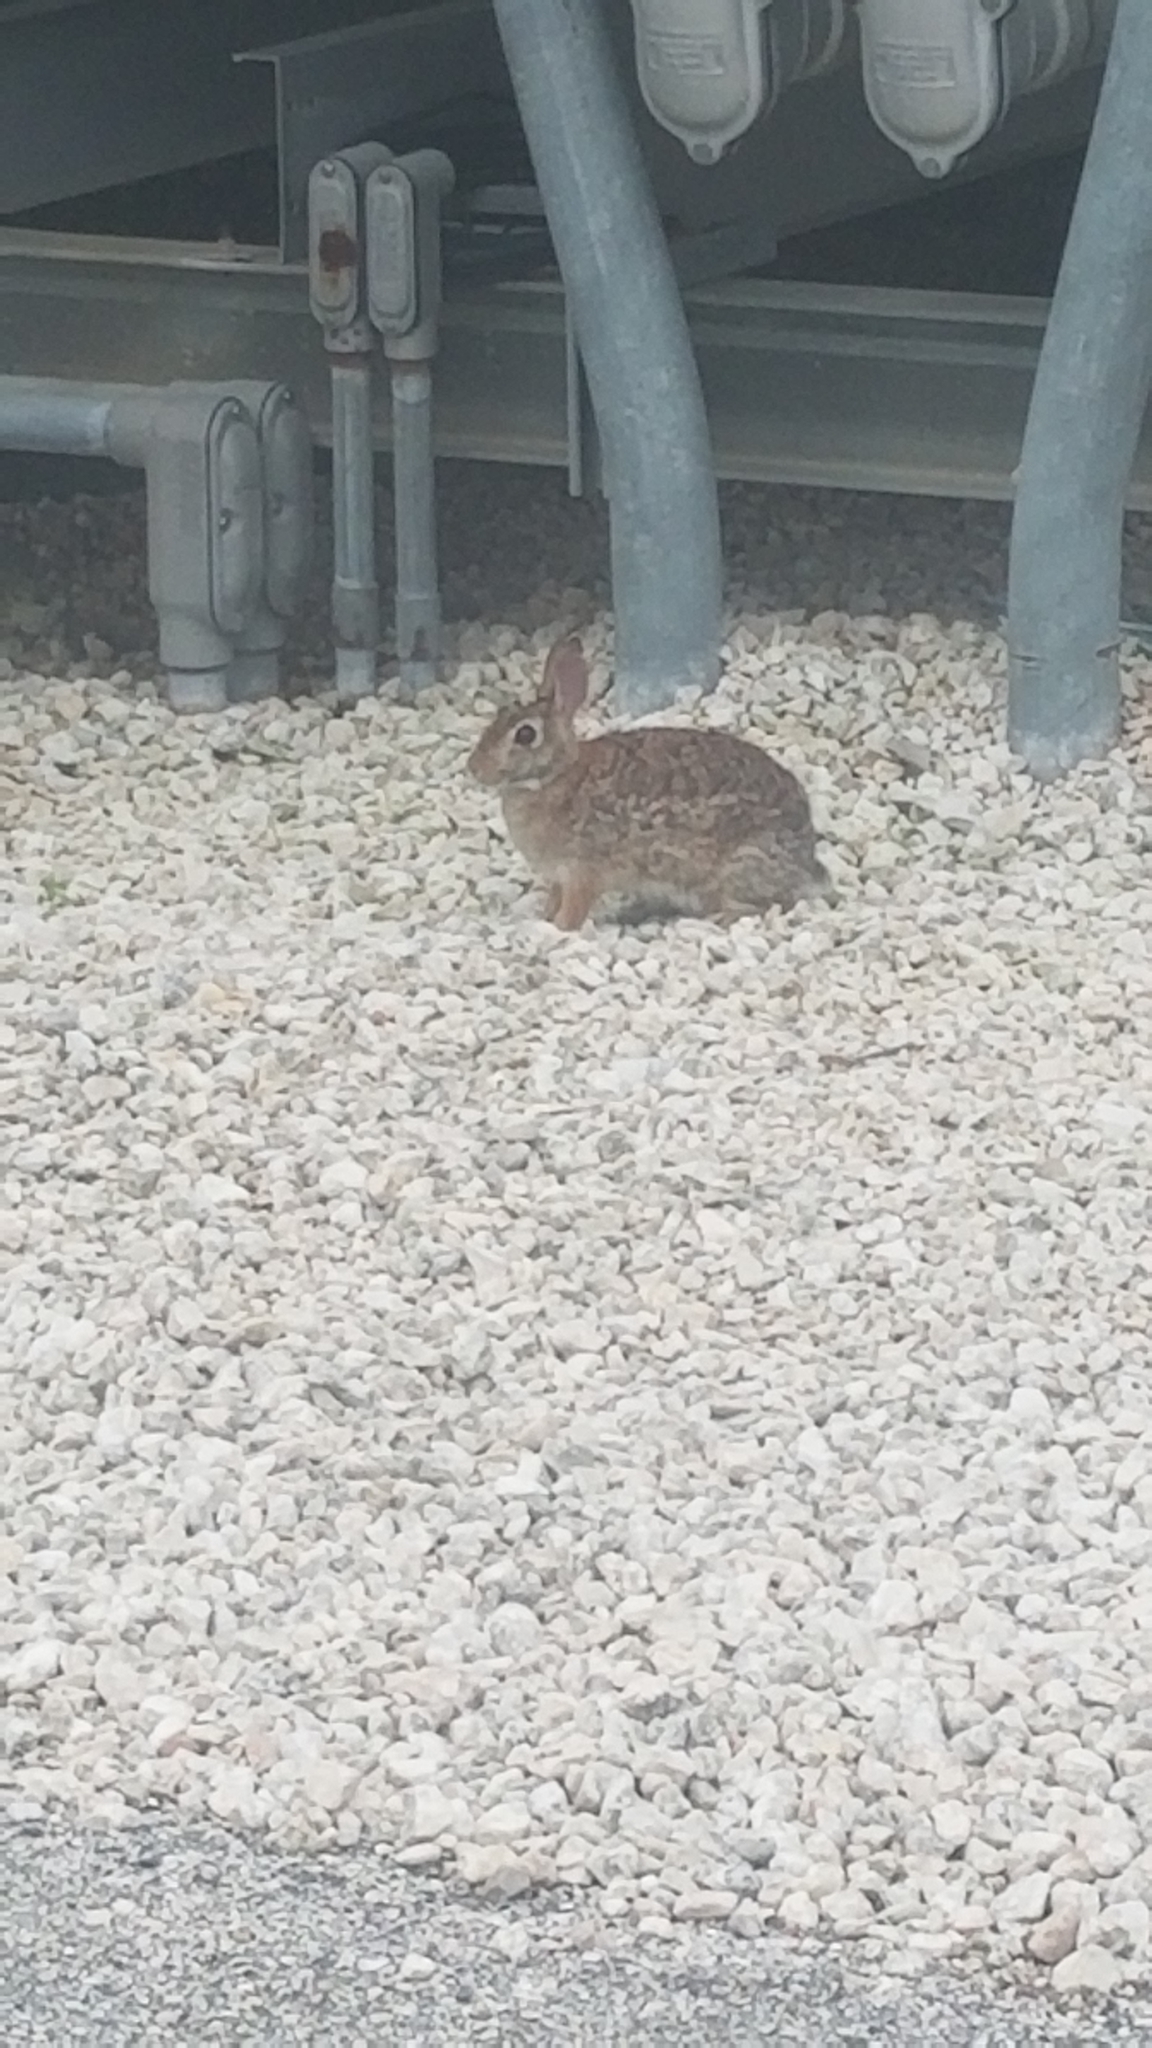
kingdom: Animalia
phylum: Chordata
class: Mammalia
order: Lagomorpha
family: Leporidae
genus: Sylvilagus
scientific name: Sylvilagus floridanus
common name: Eastern cottontail
